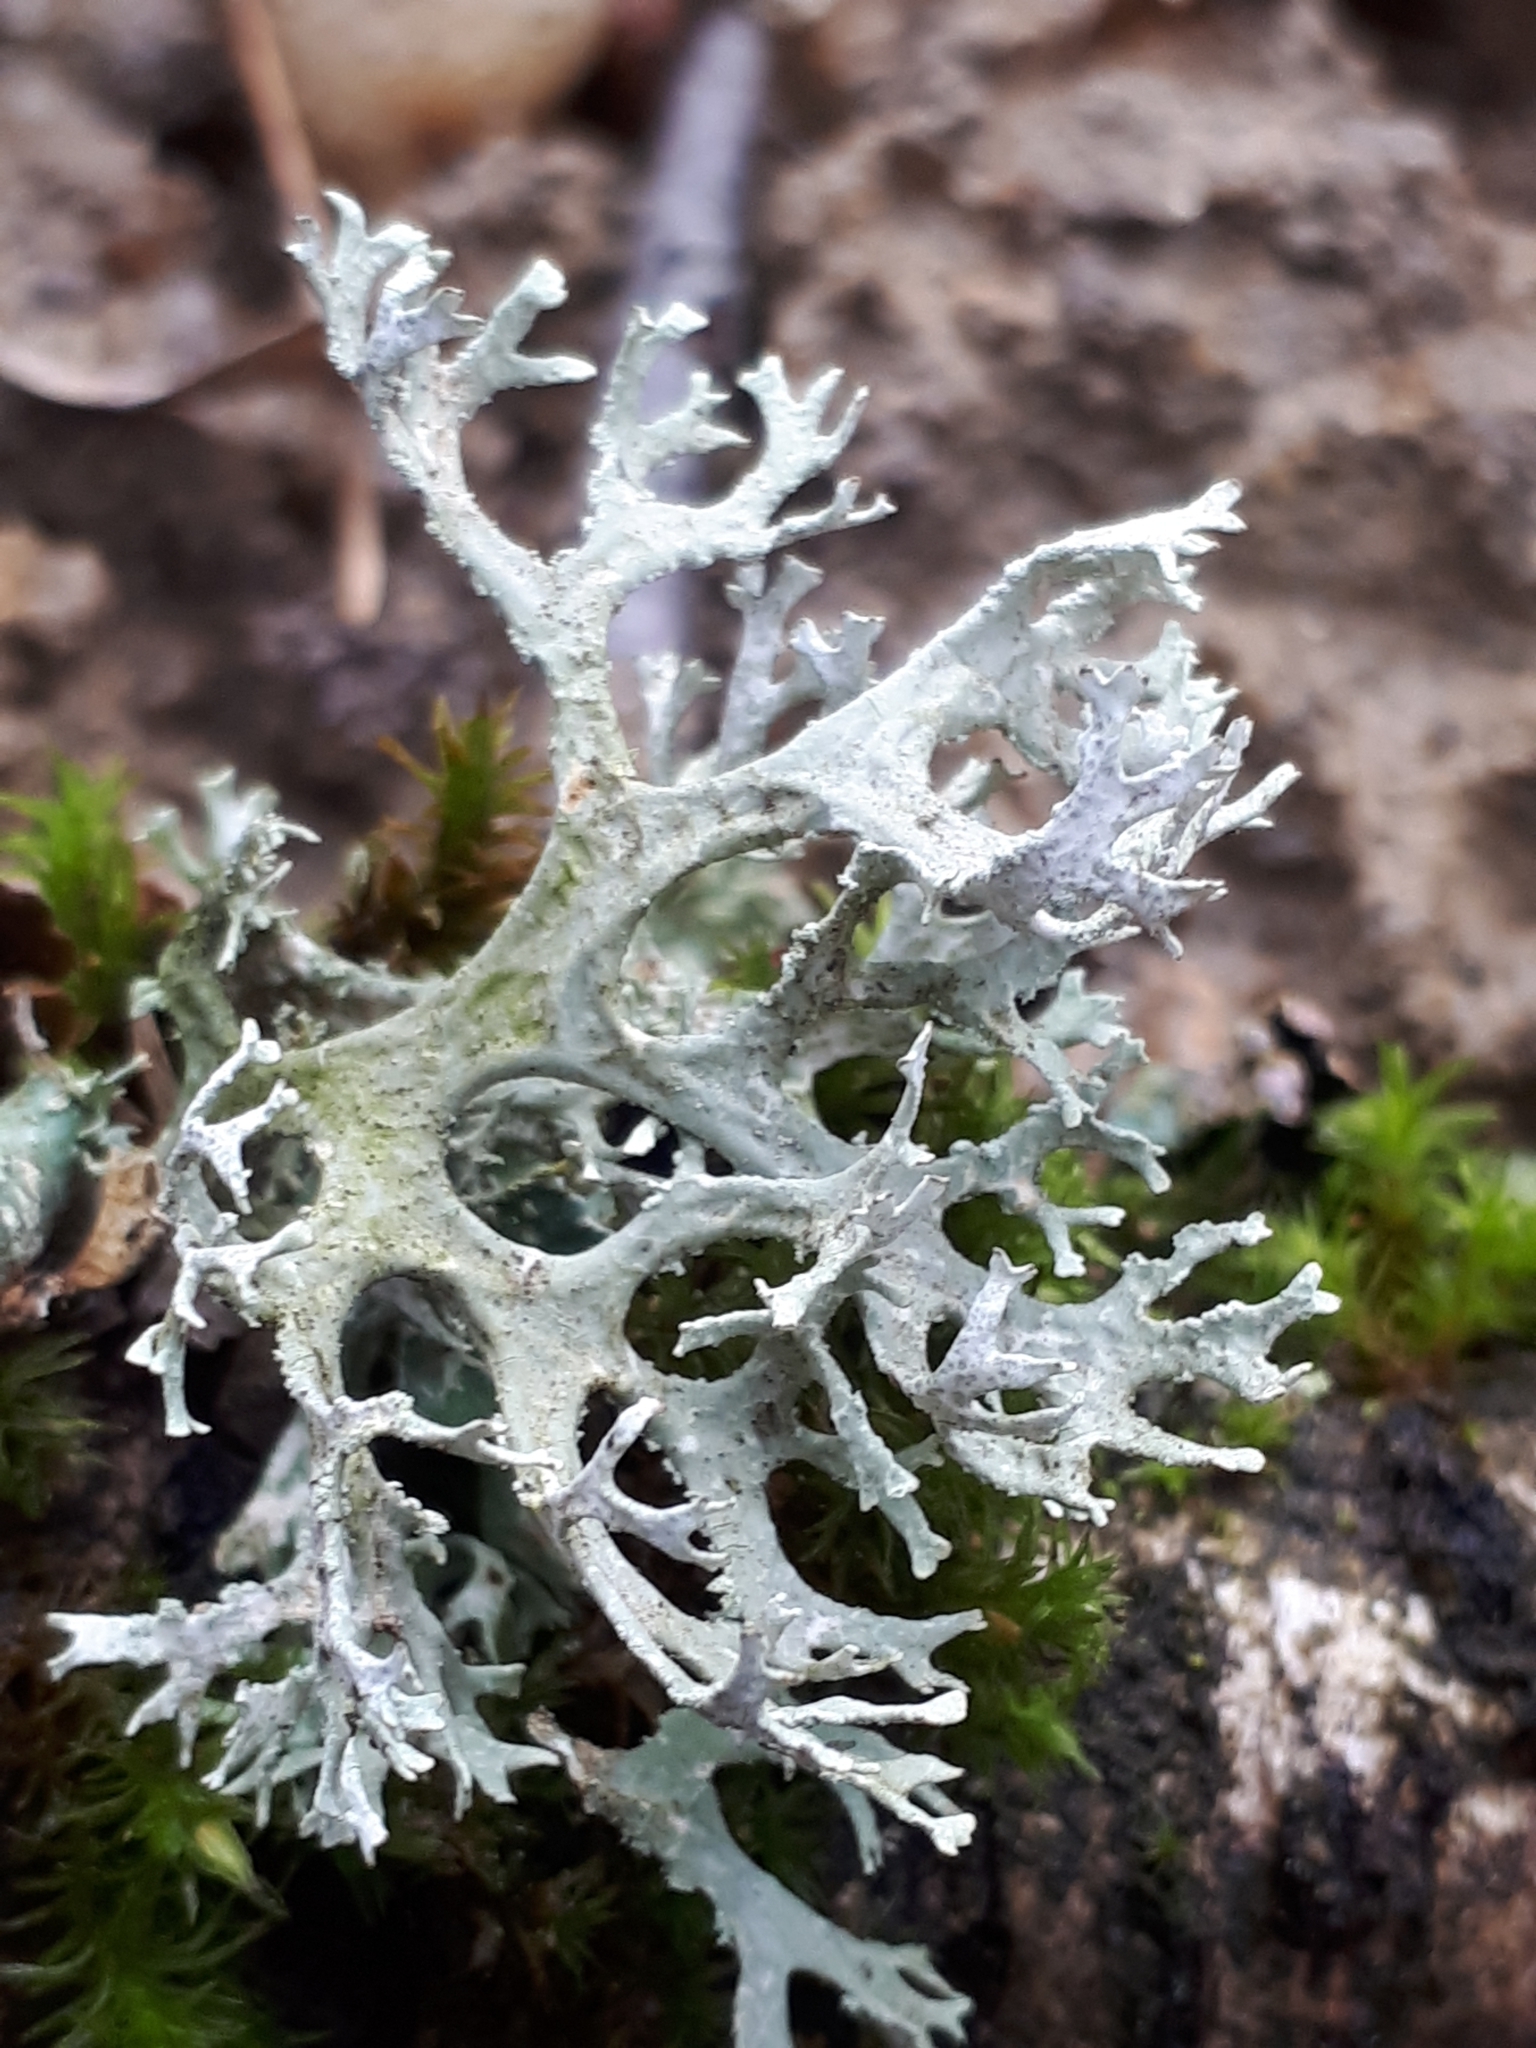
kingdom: Fungi
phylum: Ascomycota
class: Lecanoromycetes
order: Lecanorales
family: Parmeliaceae
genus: Evernia
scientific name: Evernia prunastri
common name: Oak moss
